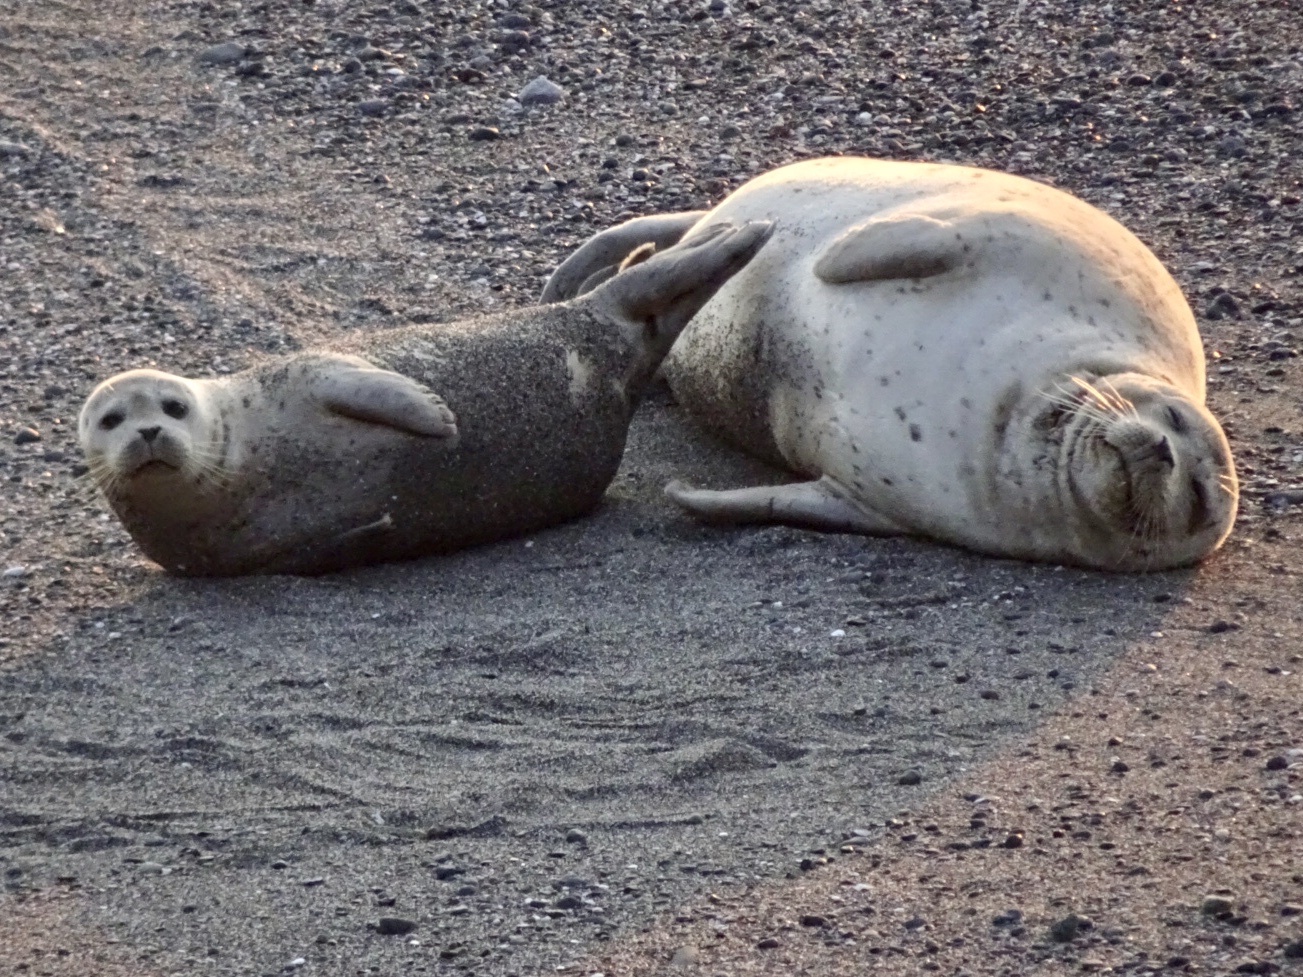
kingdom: Animalia
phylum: Chordata
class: Mammalia
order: Carnivora
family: Phocidae
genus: Phoca
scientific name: Phoca vitulina
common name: Harbor seal
